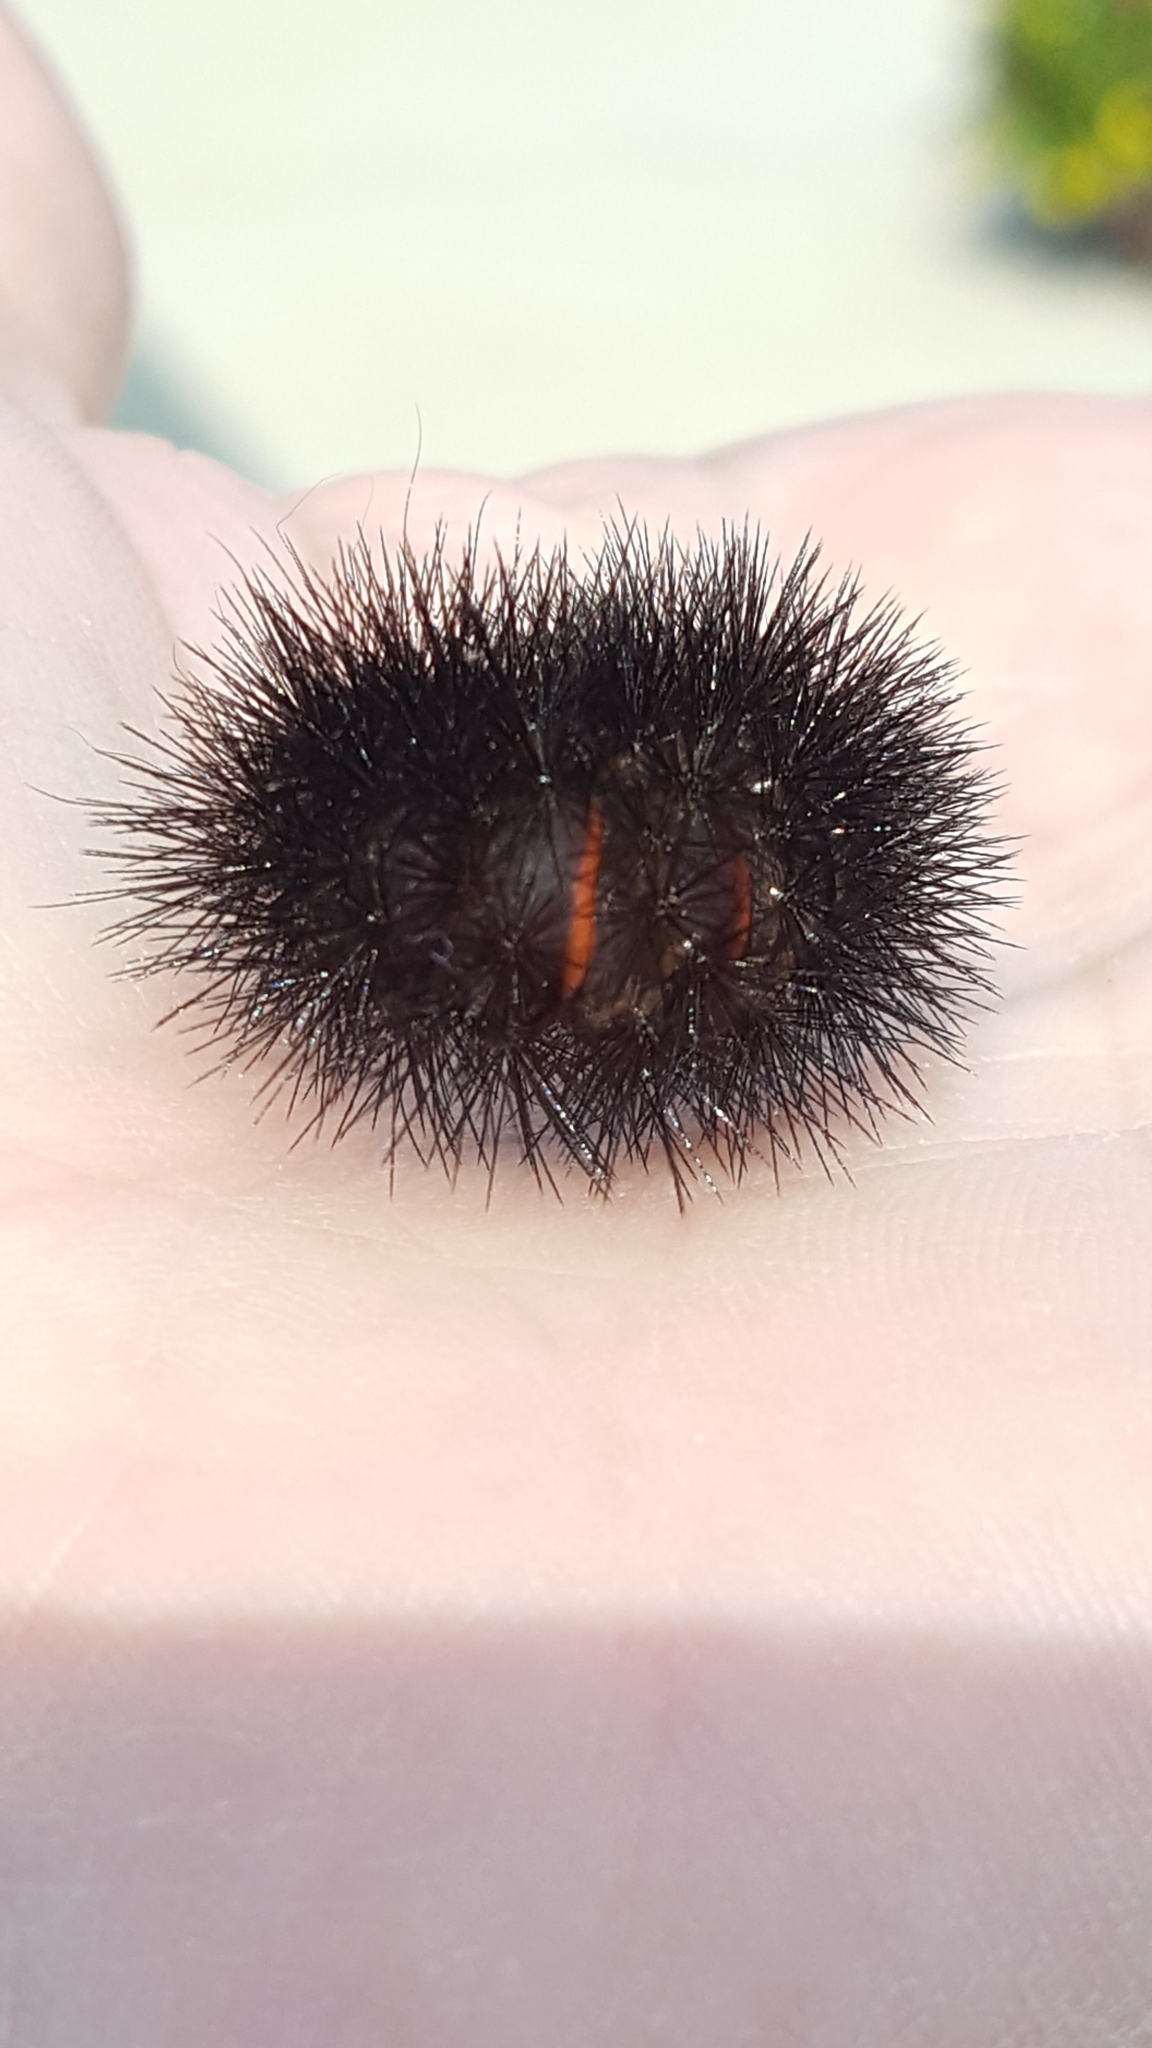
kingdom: Animalia
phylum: Arthropoda
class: Insecta
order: Lepidoptera
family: Erebidae
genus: Hypercompe
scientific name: Hypercompe scribonia
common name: Giant leopard moth
